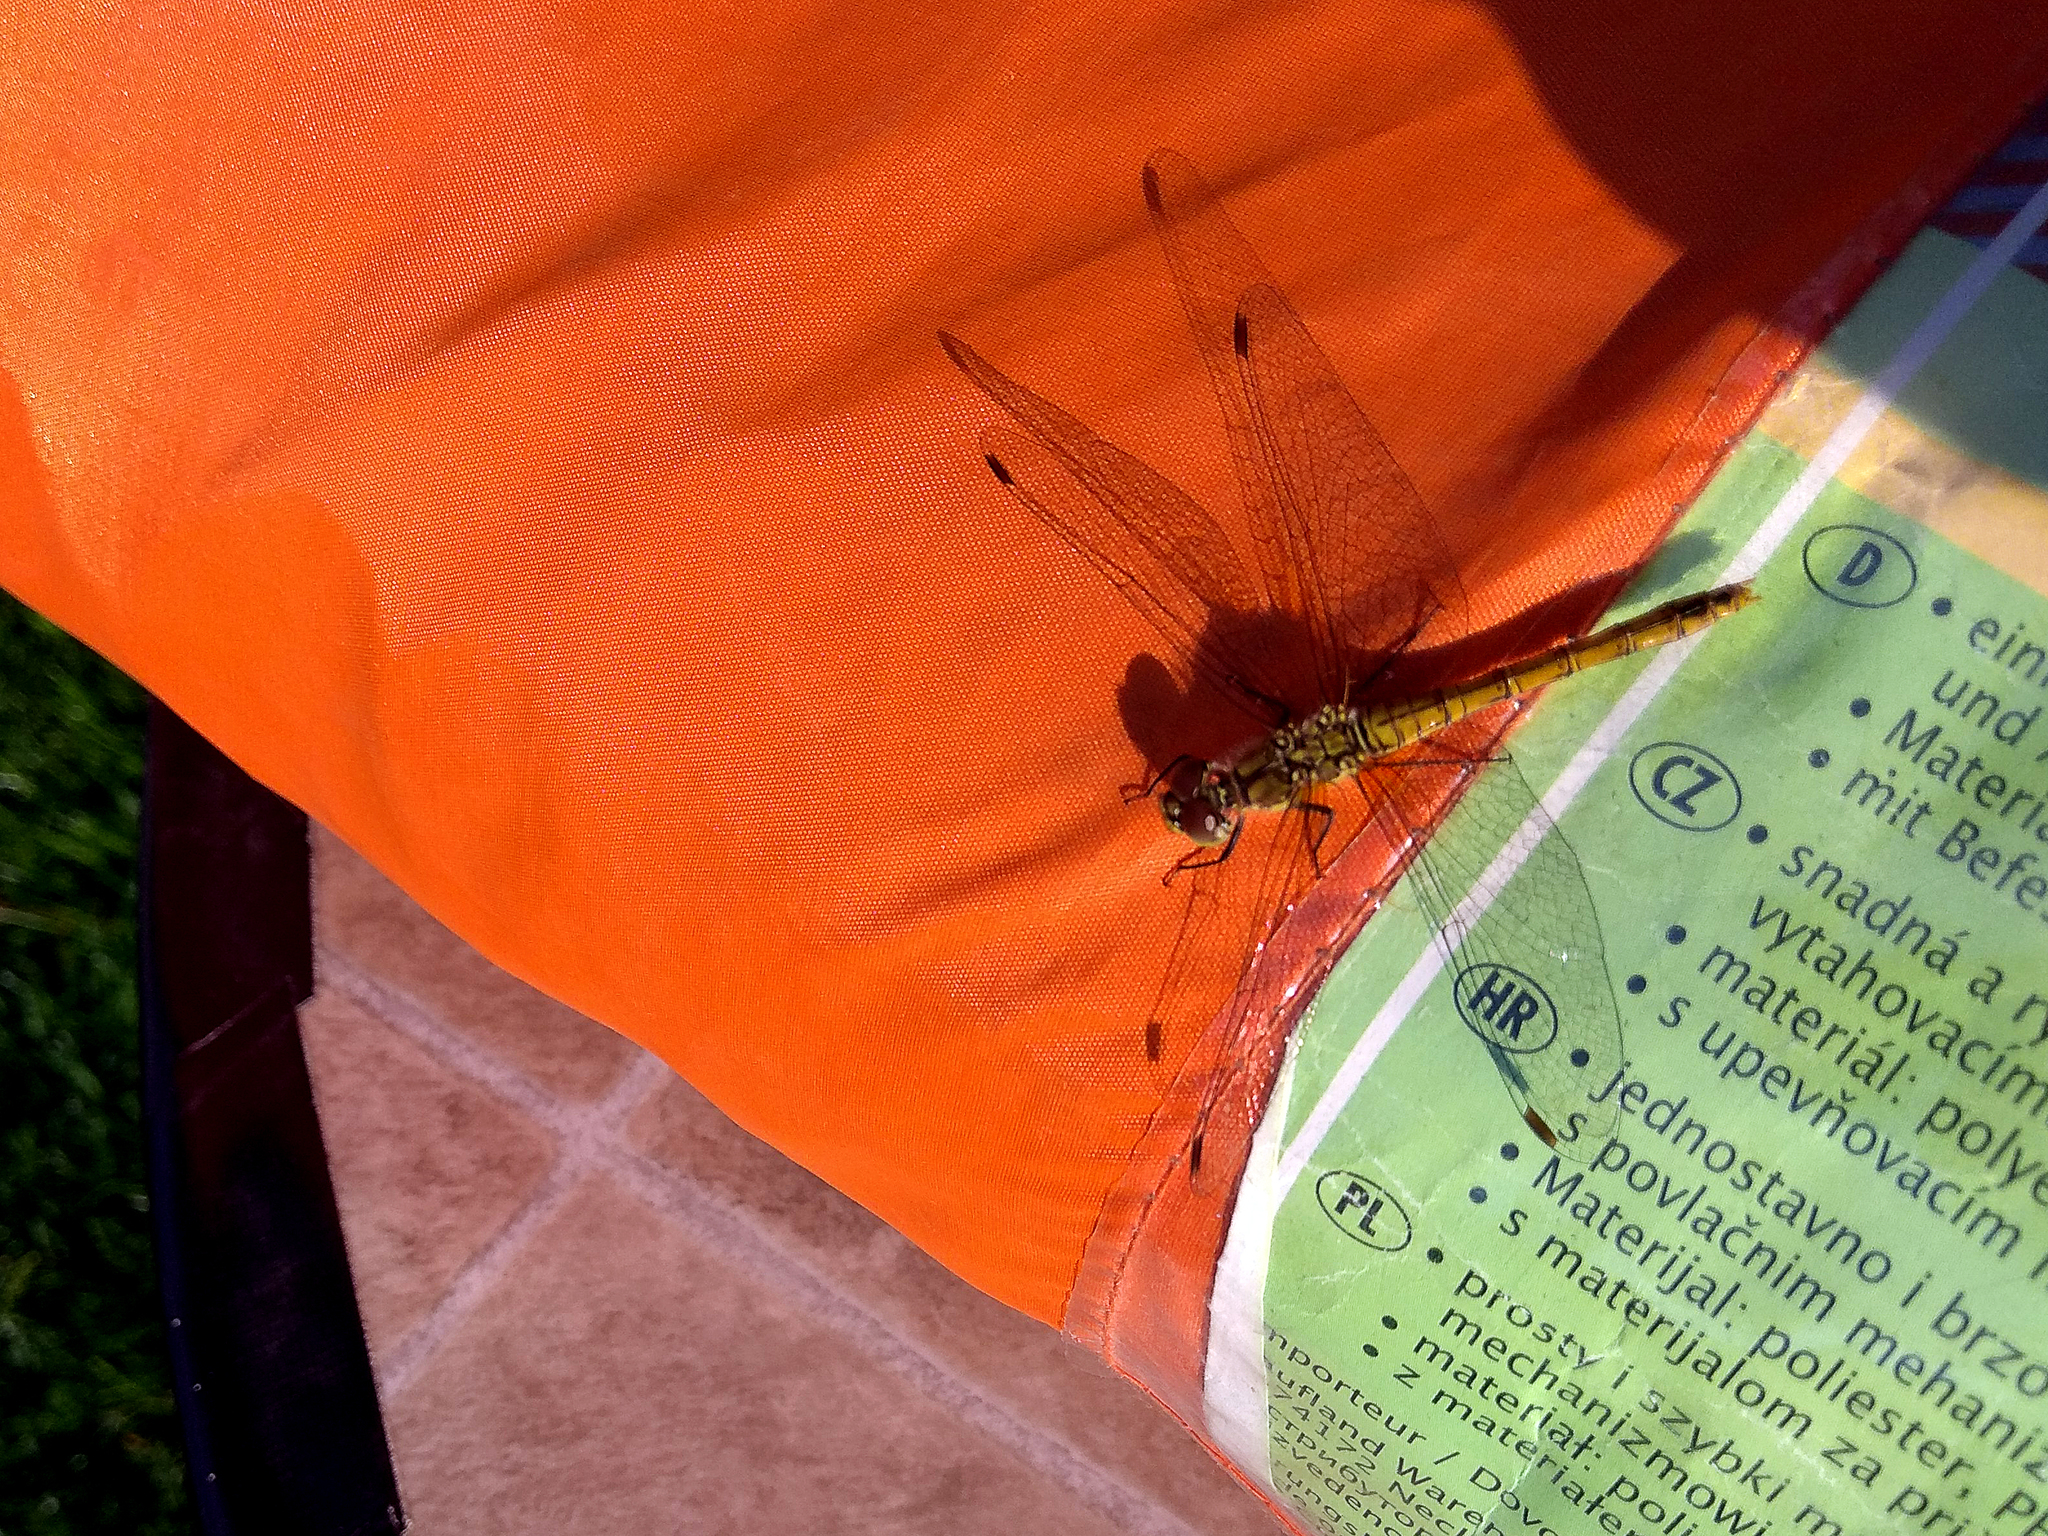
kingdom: Animalia
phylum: Arthropoda
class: Insecta
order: Odonata
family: Libellulidae
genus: Sympetrum
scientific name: Sympetrum sanguineum
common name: Ruddy darter
